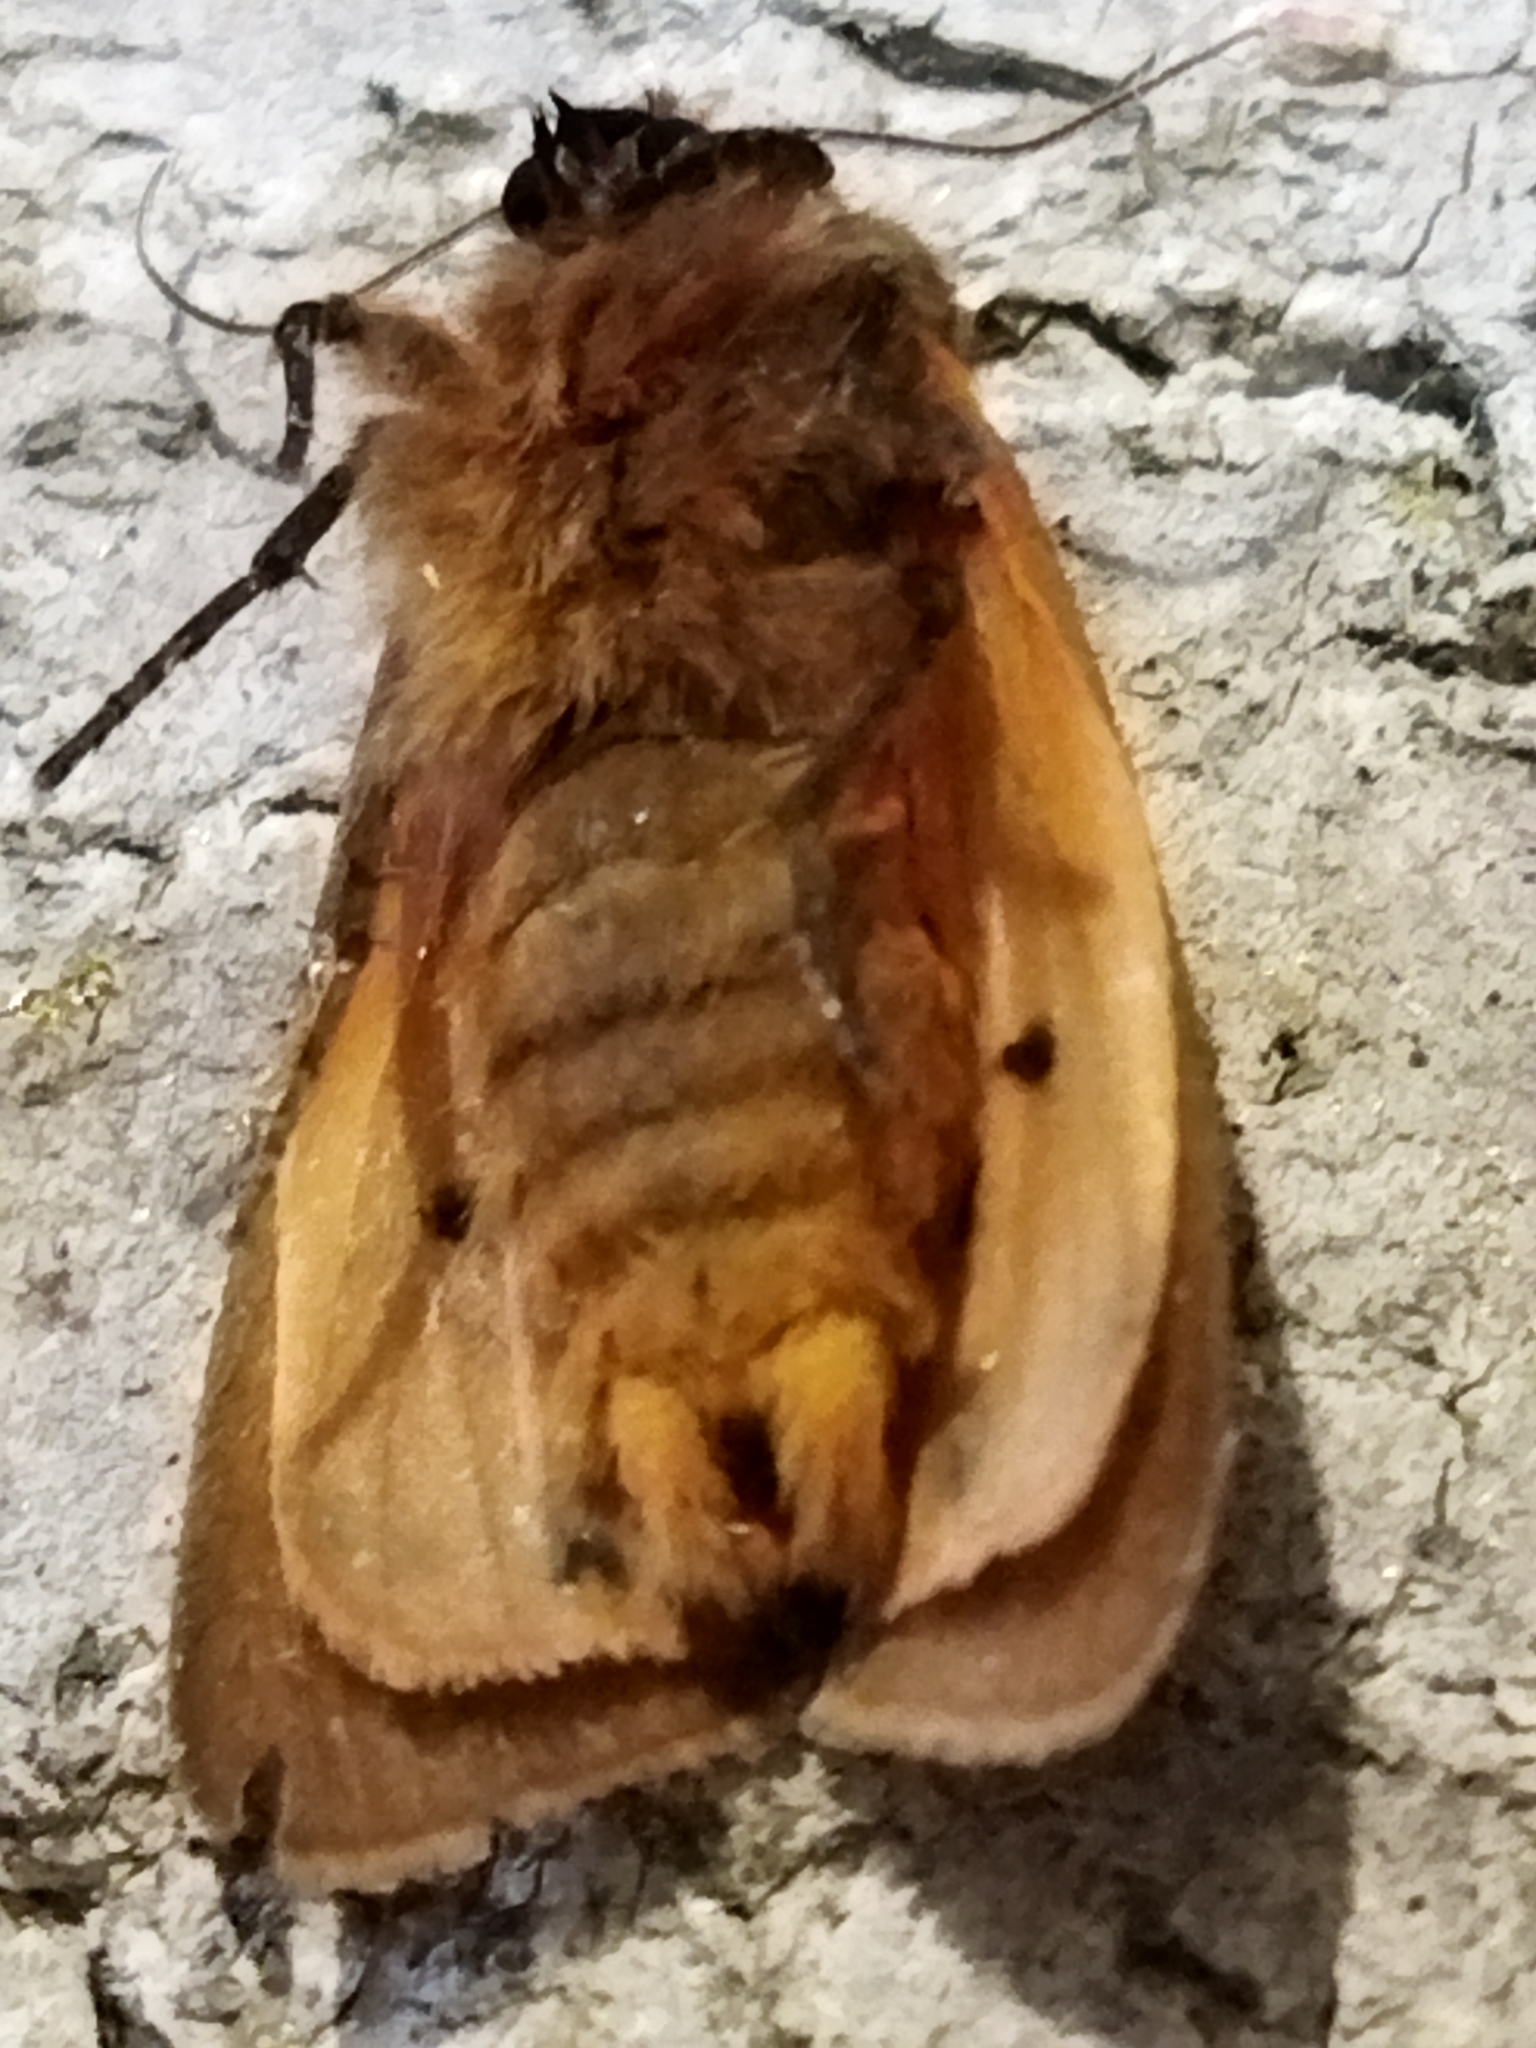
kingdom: Animalia
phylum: Arthropoda
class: Insecta
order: Lepidoptera
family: Erebidae
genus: Phragmatobia
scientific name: Phragmatobia fuliginosa
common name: Ruby tiger
